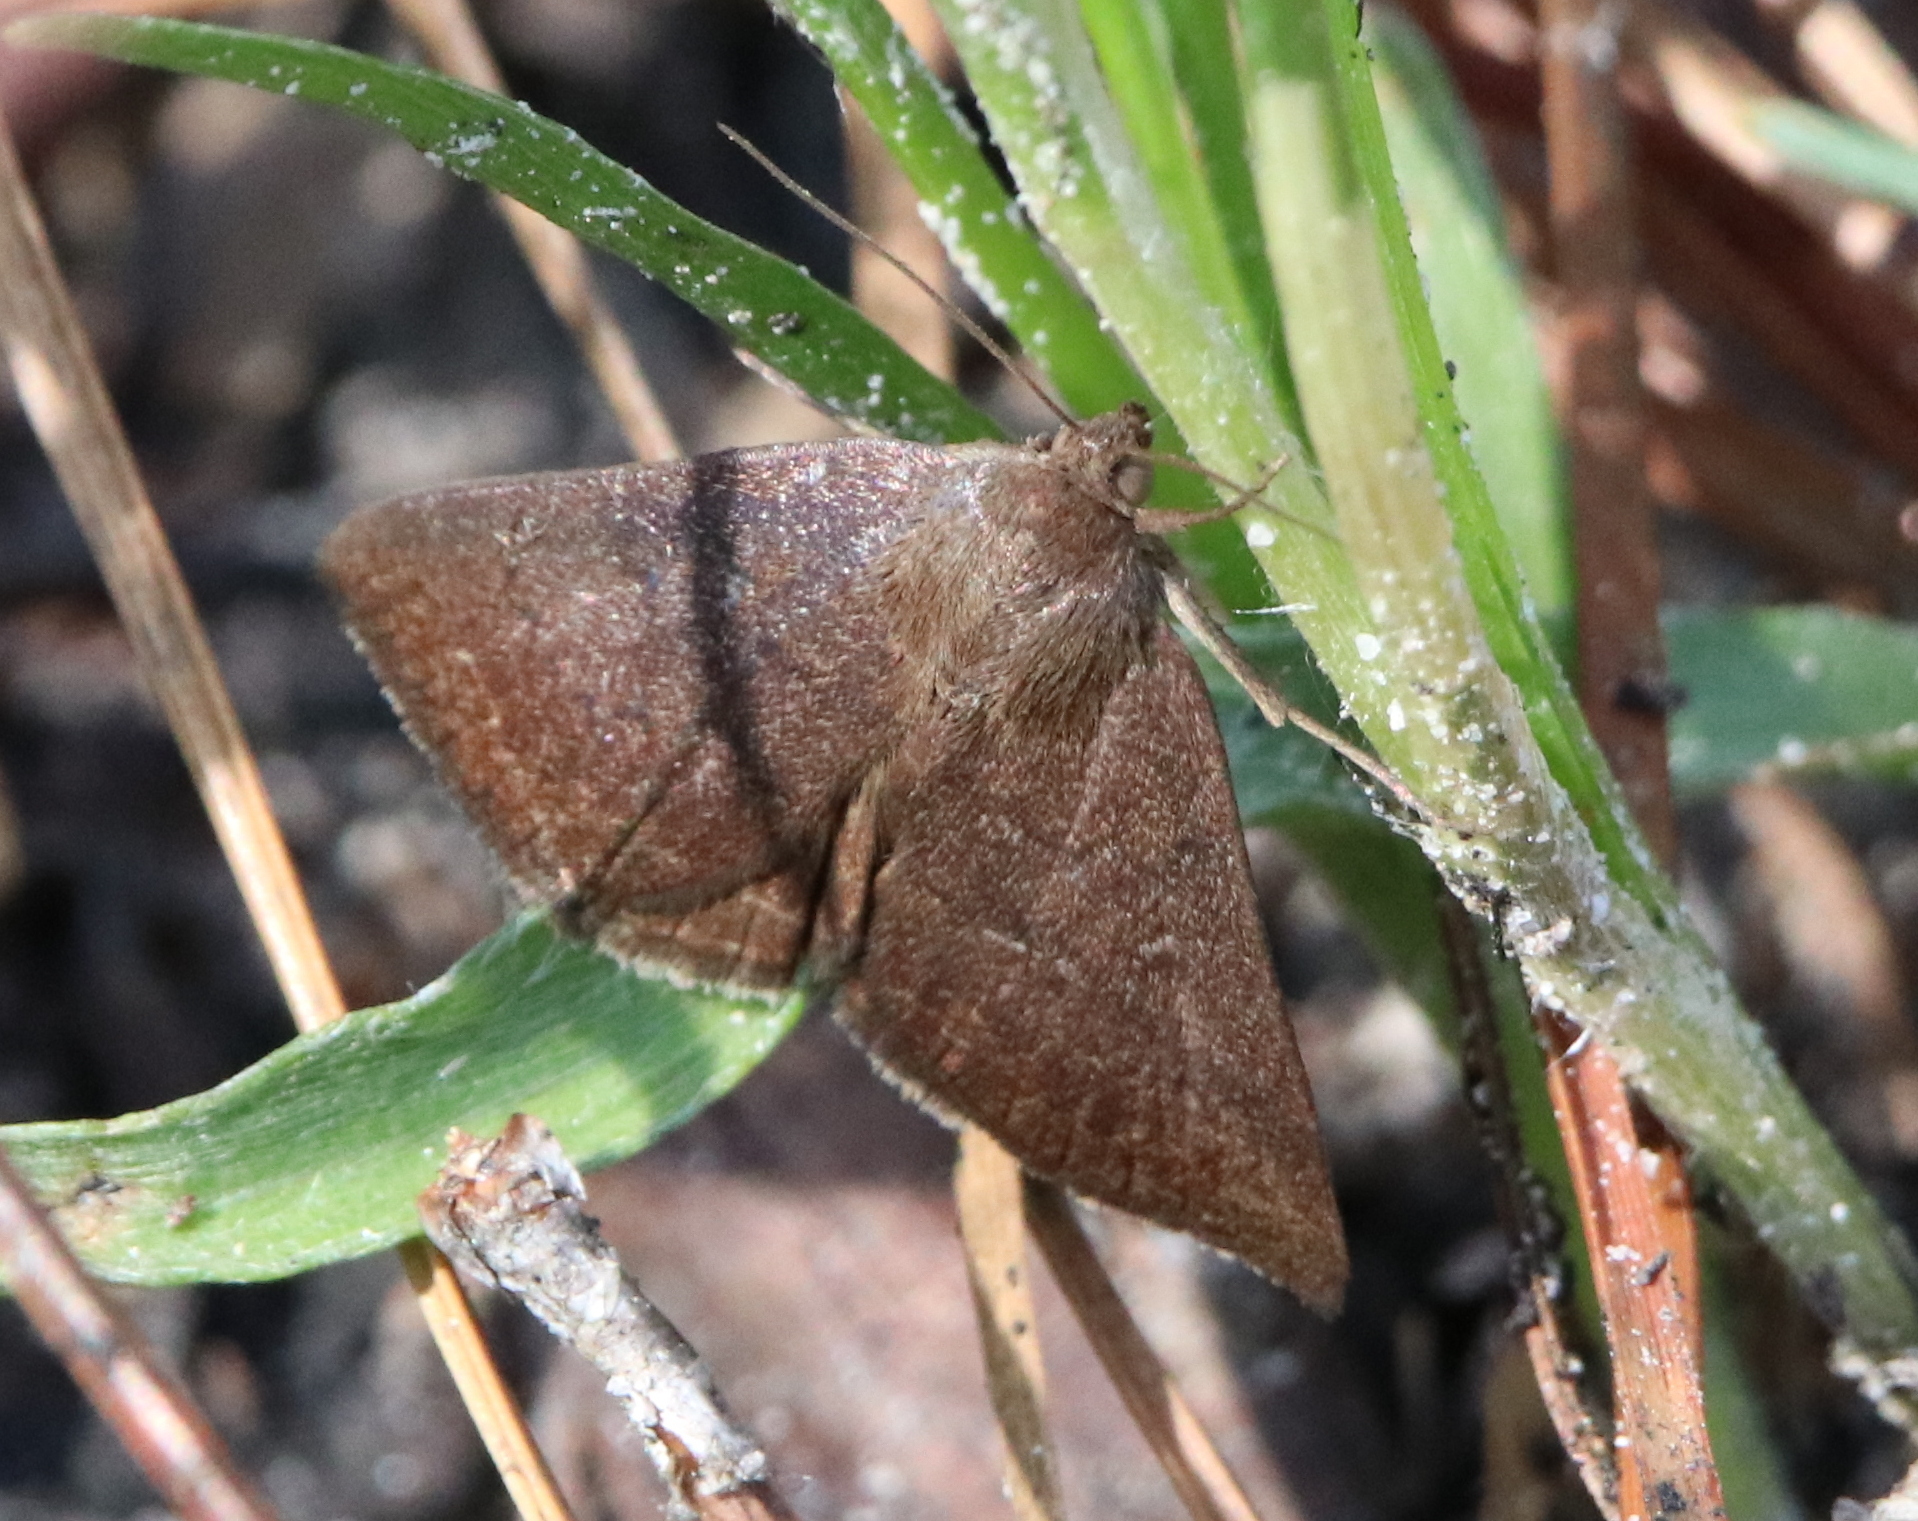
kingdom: Animalia
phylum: Arthropoda
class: Insecta
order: Lepidoptera
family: Erebidae
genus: Argyrostrotis
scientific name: Argyrostrotis erasa
